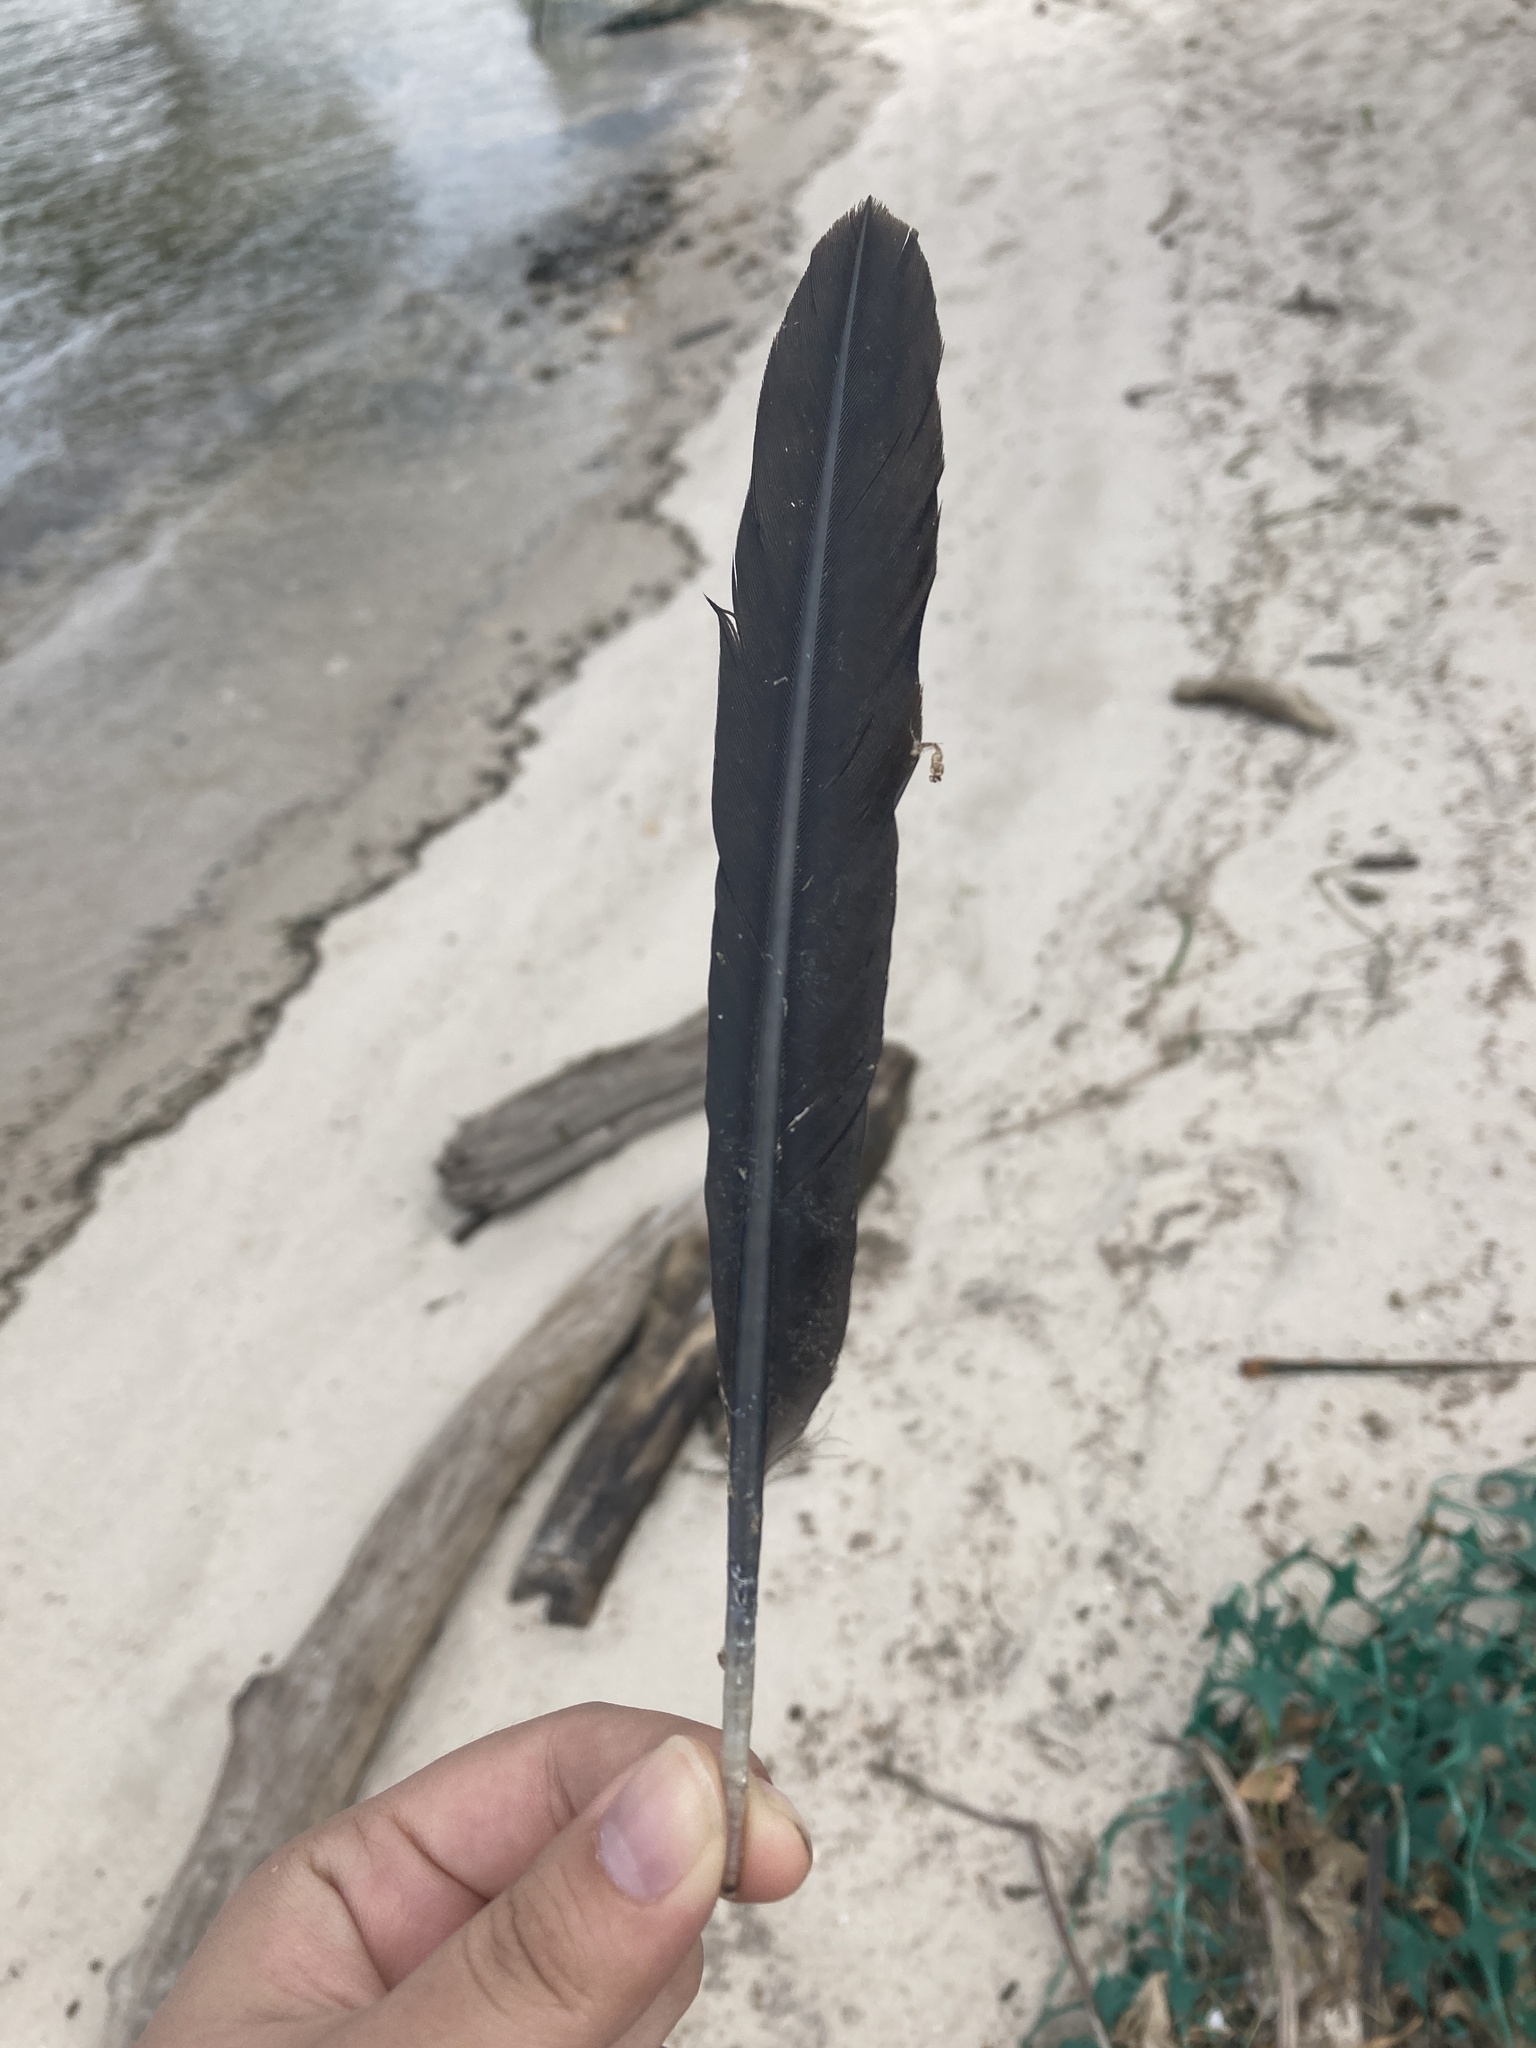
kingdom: Animalia
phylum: Chordata
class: Aves
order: Suliformes
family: Phalacrocoracidae
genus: Phalacrocorax
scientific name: Phalacrocorax auritus
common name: Double-crested cormorant
